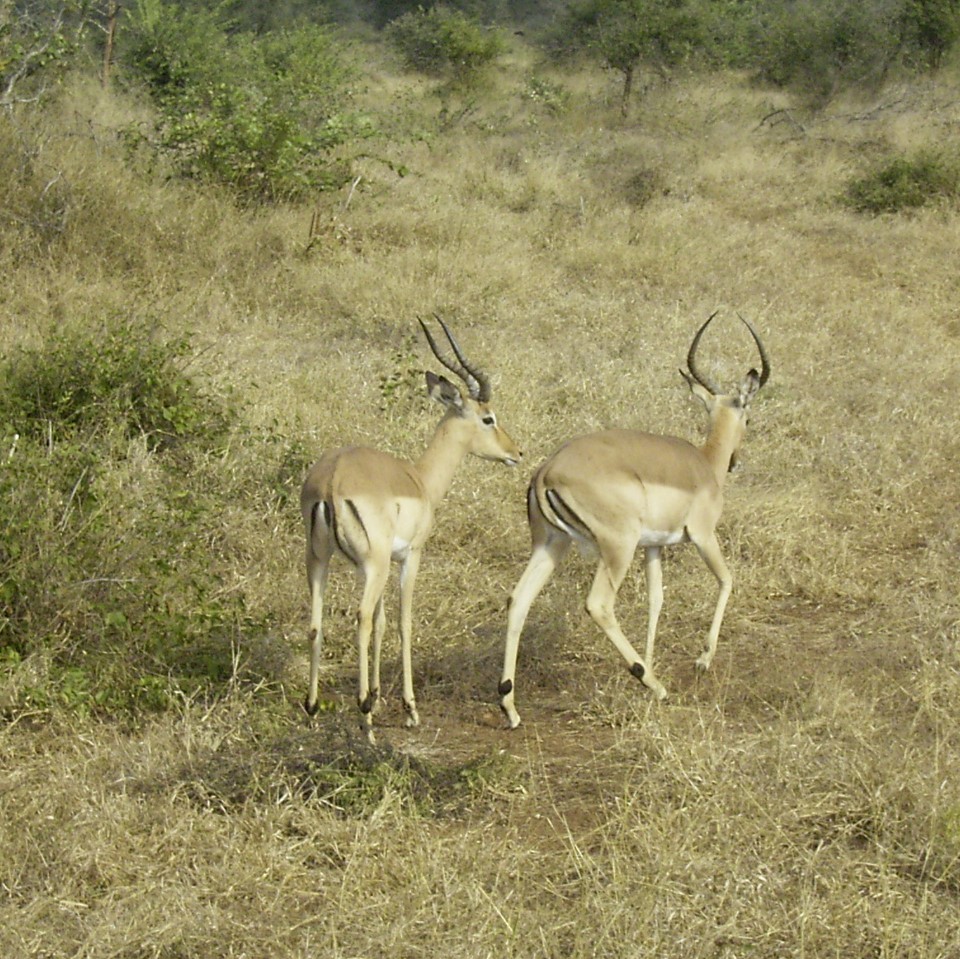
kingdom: Animalia
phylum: Chordata
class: Mammalia
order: Artiodactyla
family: Bovidae
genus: Aepyceros
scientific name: Aepyceros melampus
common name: Impala
